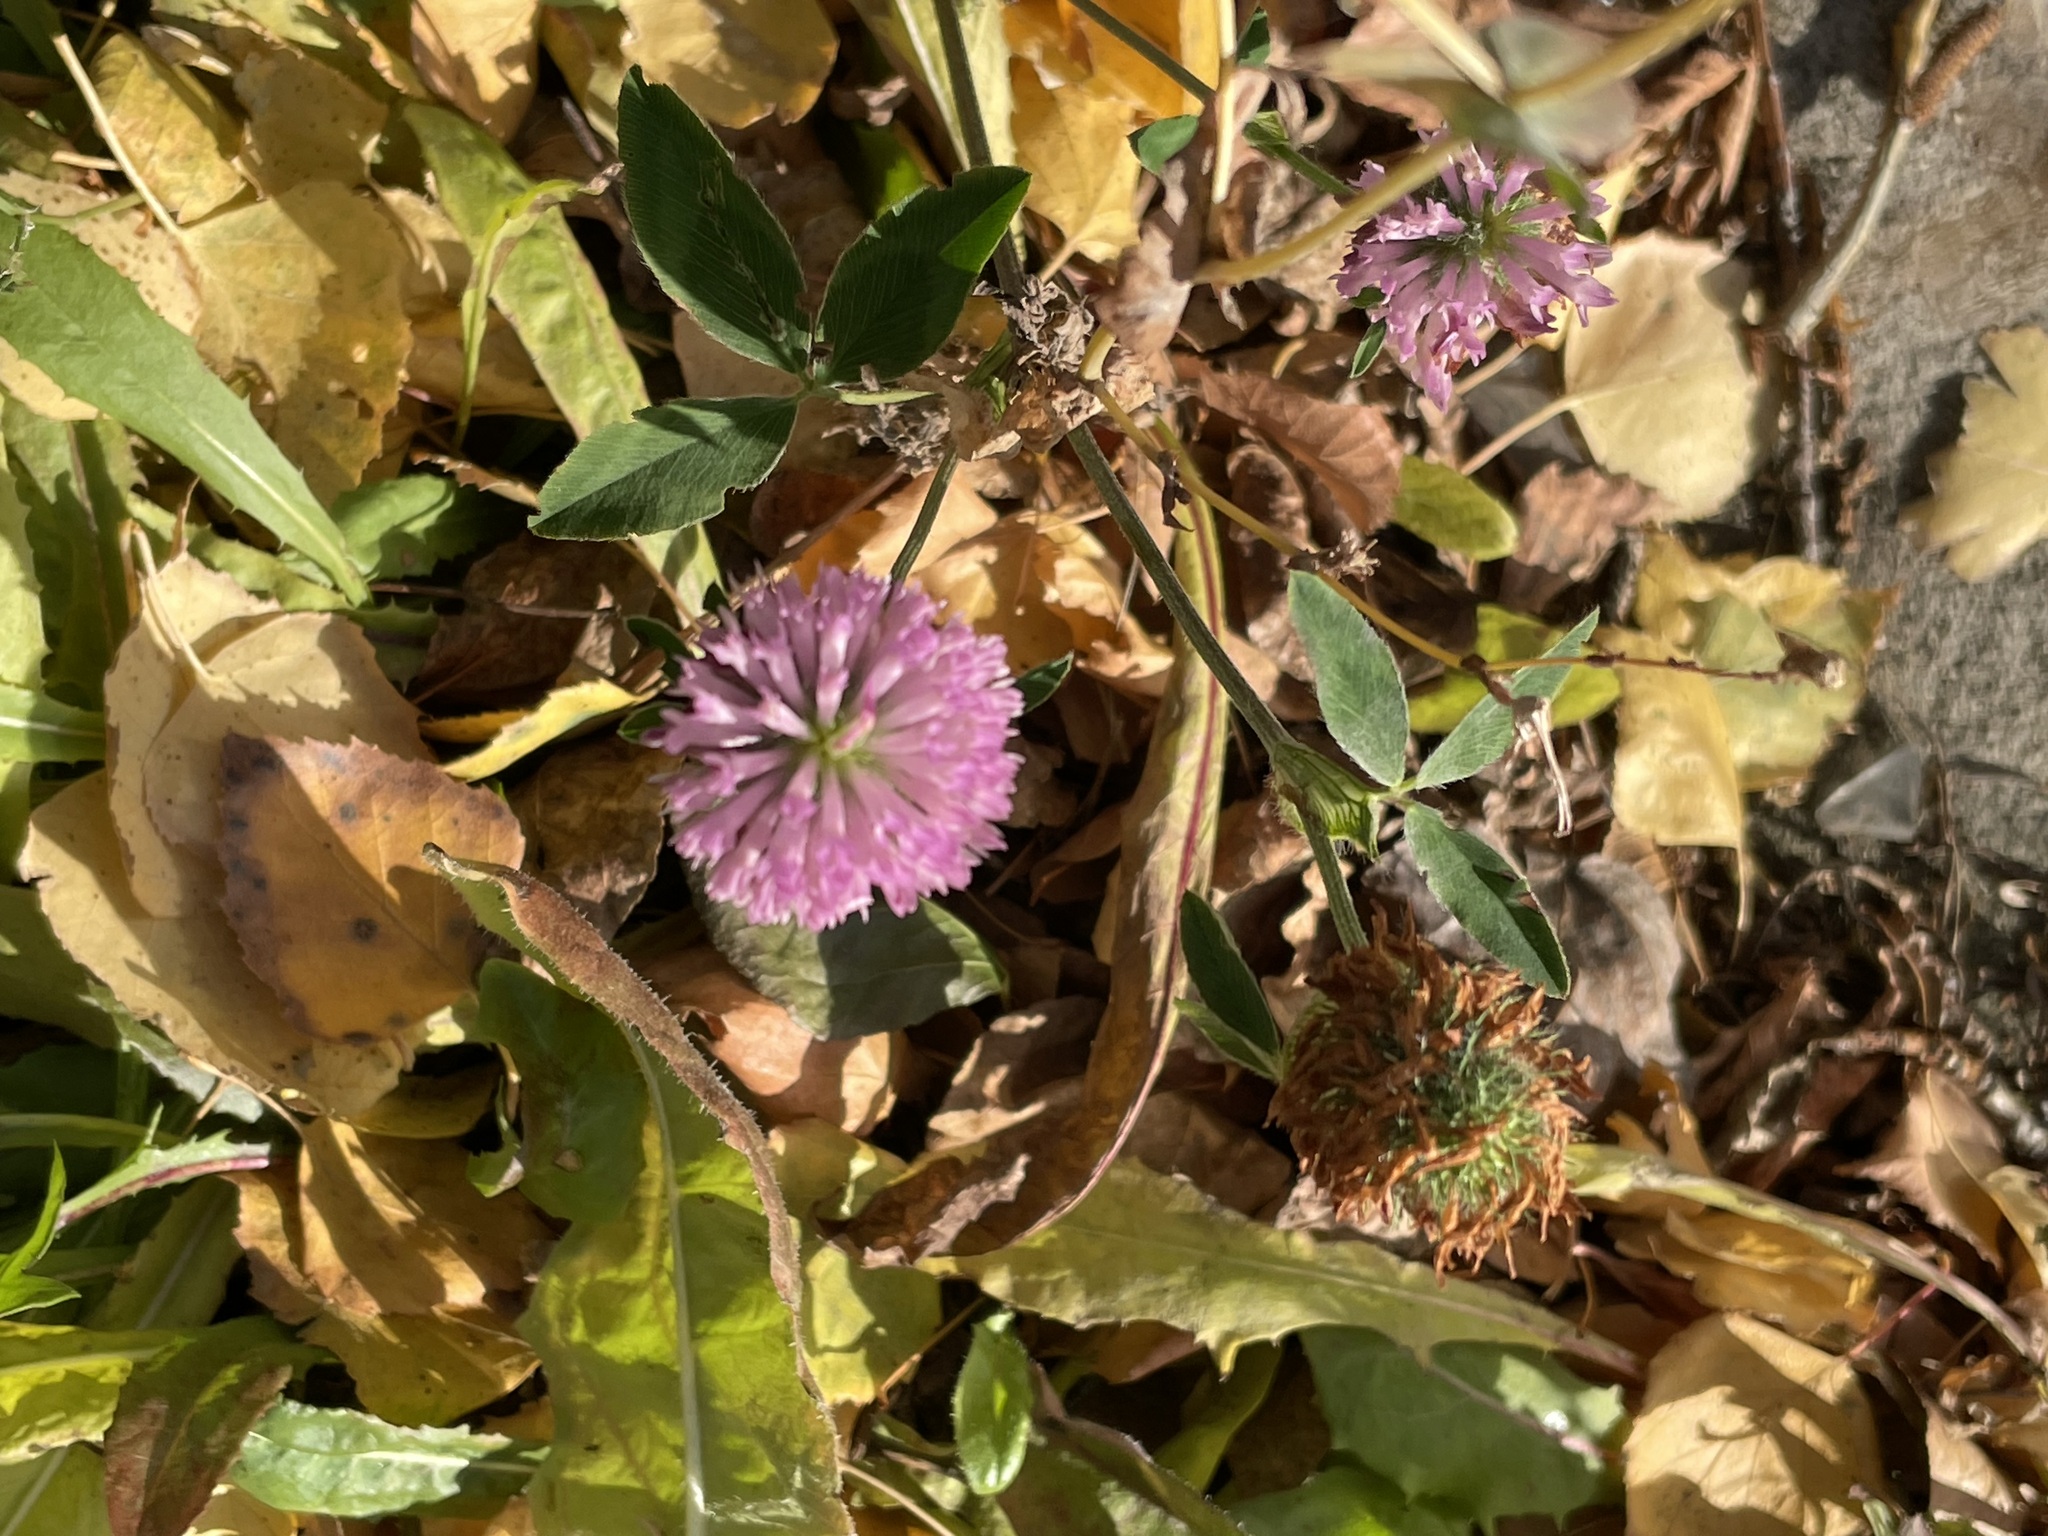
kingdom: Plantae
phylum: Tracheophyta
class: Magnoliopsida
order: Fabales
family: Fabaceae
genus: Trifolium
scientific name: Trifolium pratense
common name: Red clover
